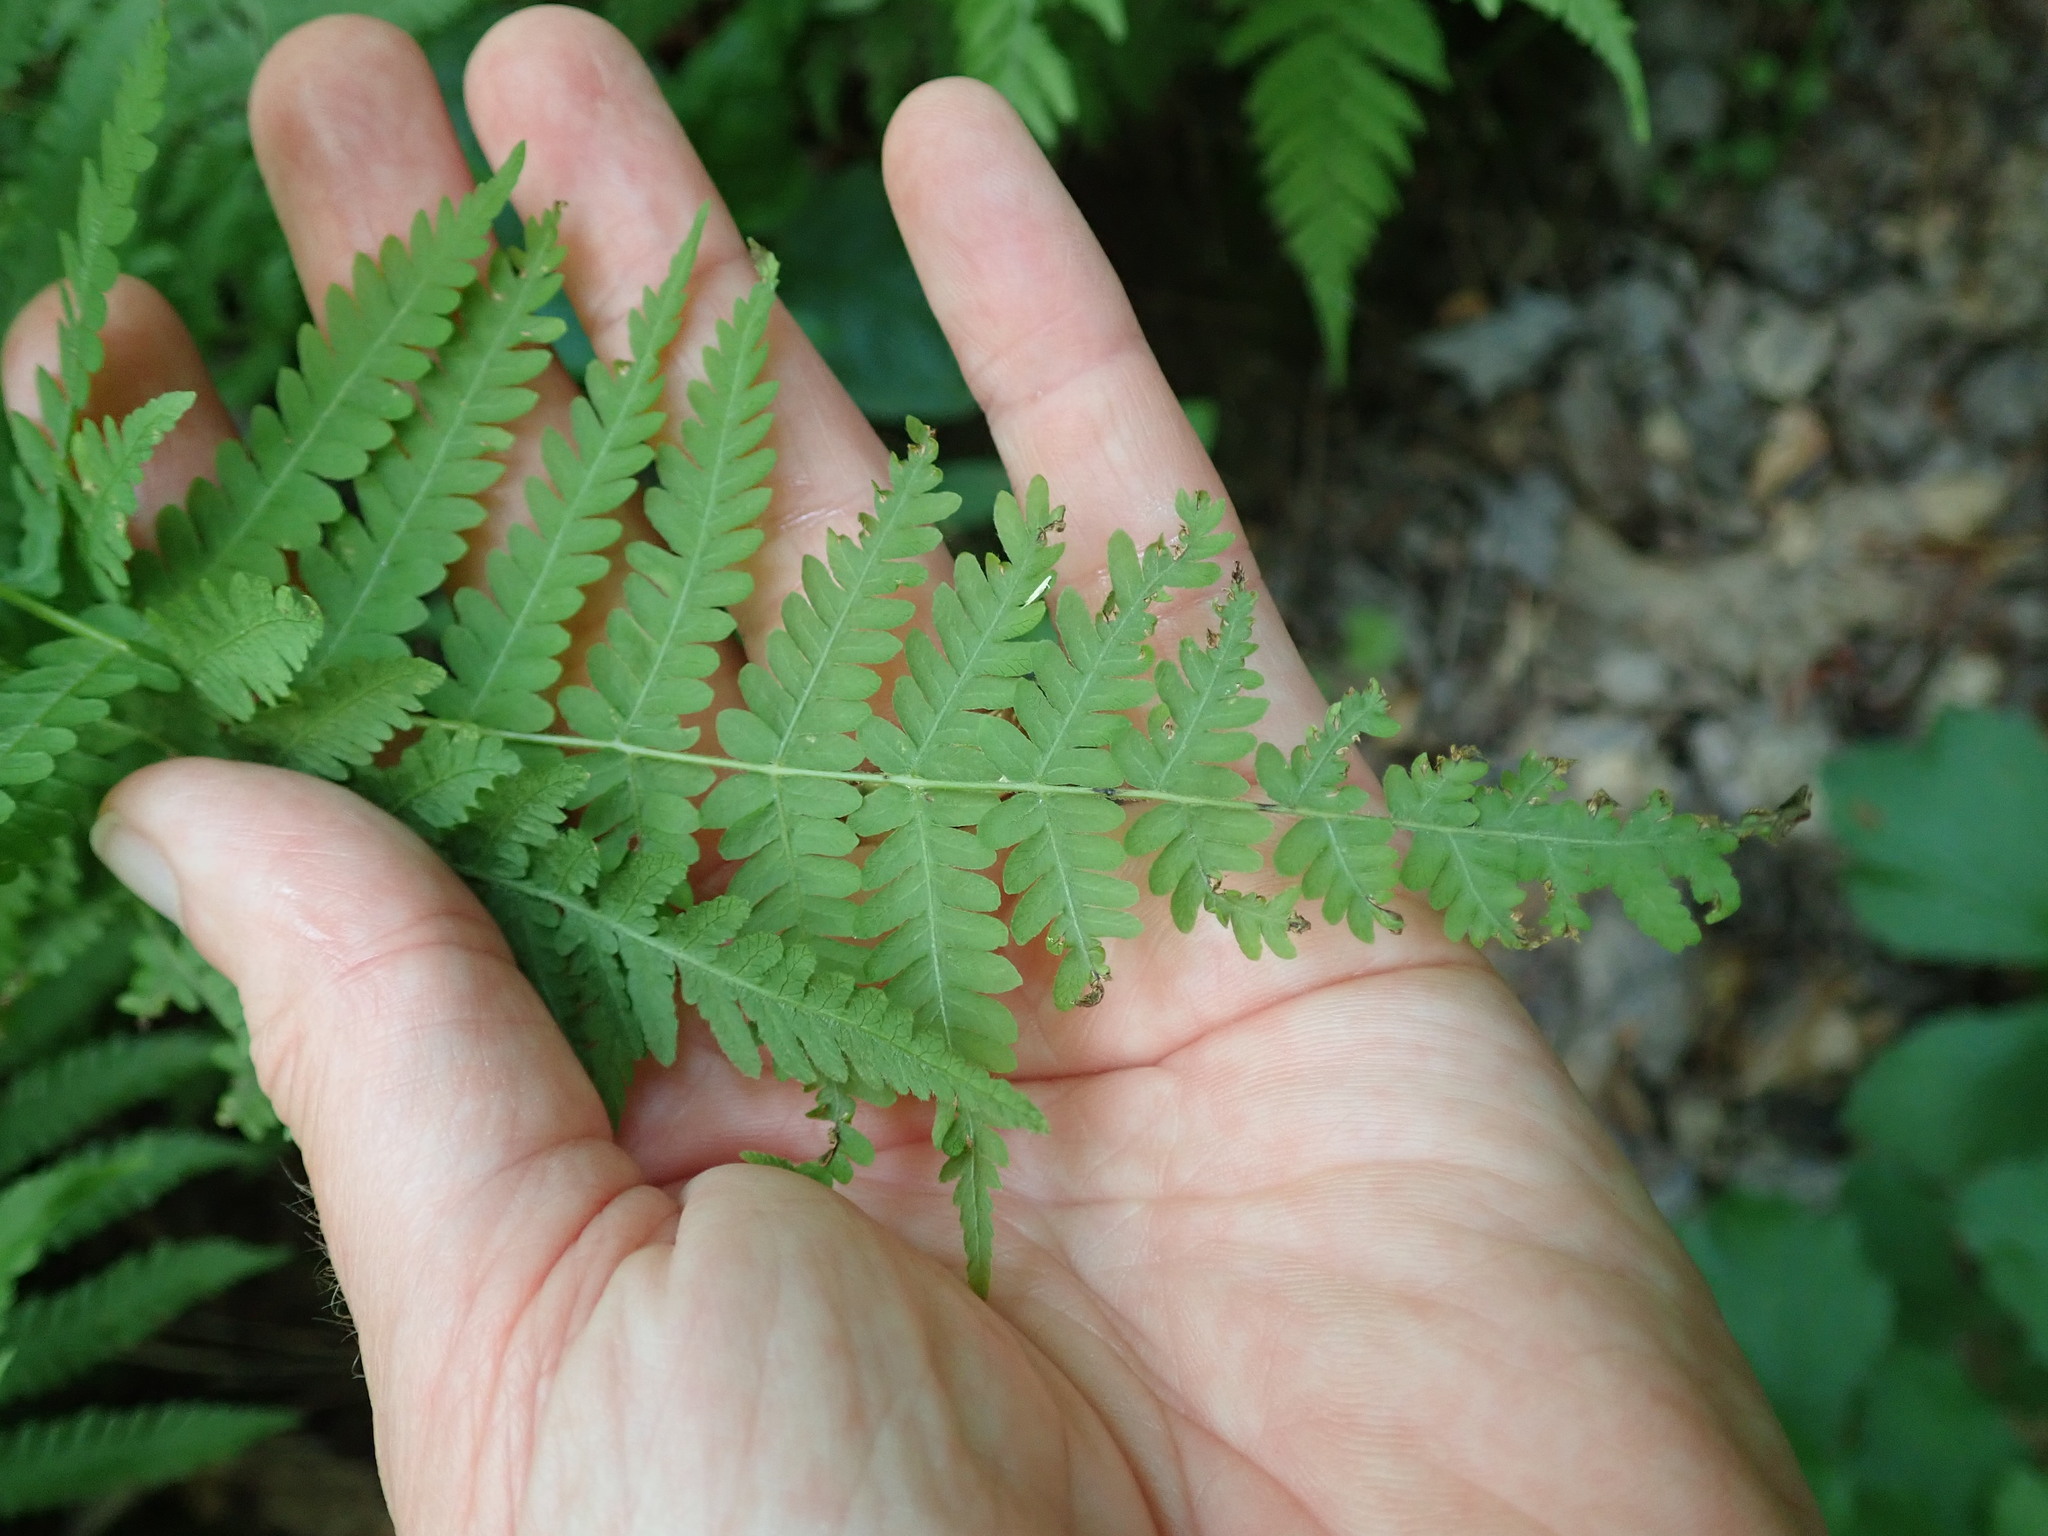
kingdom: Plantae
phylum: Tracheophyta
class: Polypodiopsida
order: Polypodiales
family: Thelypteridaceae
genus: Amauropelta
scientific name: Amauropelta noveboracensis
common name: New york fern
